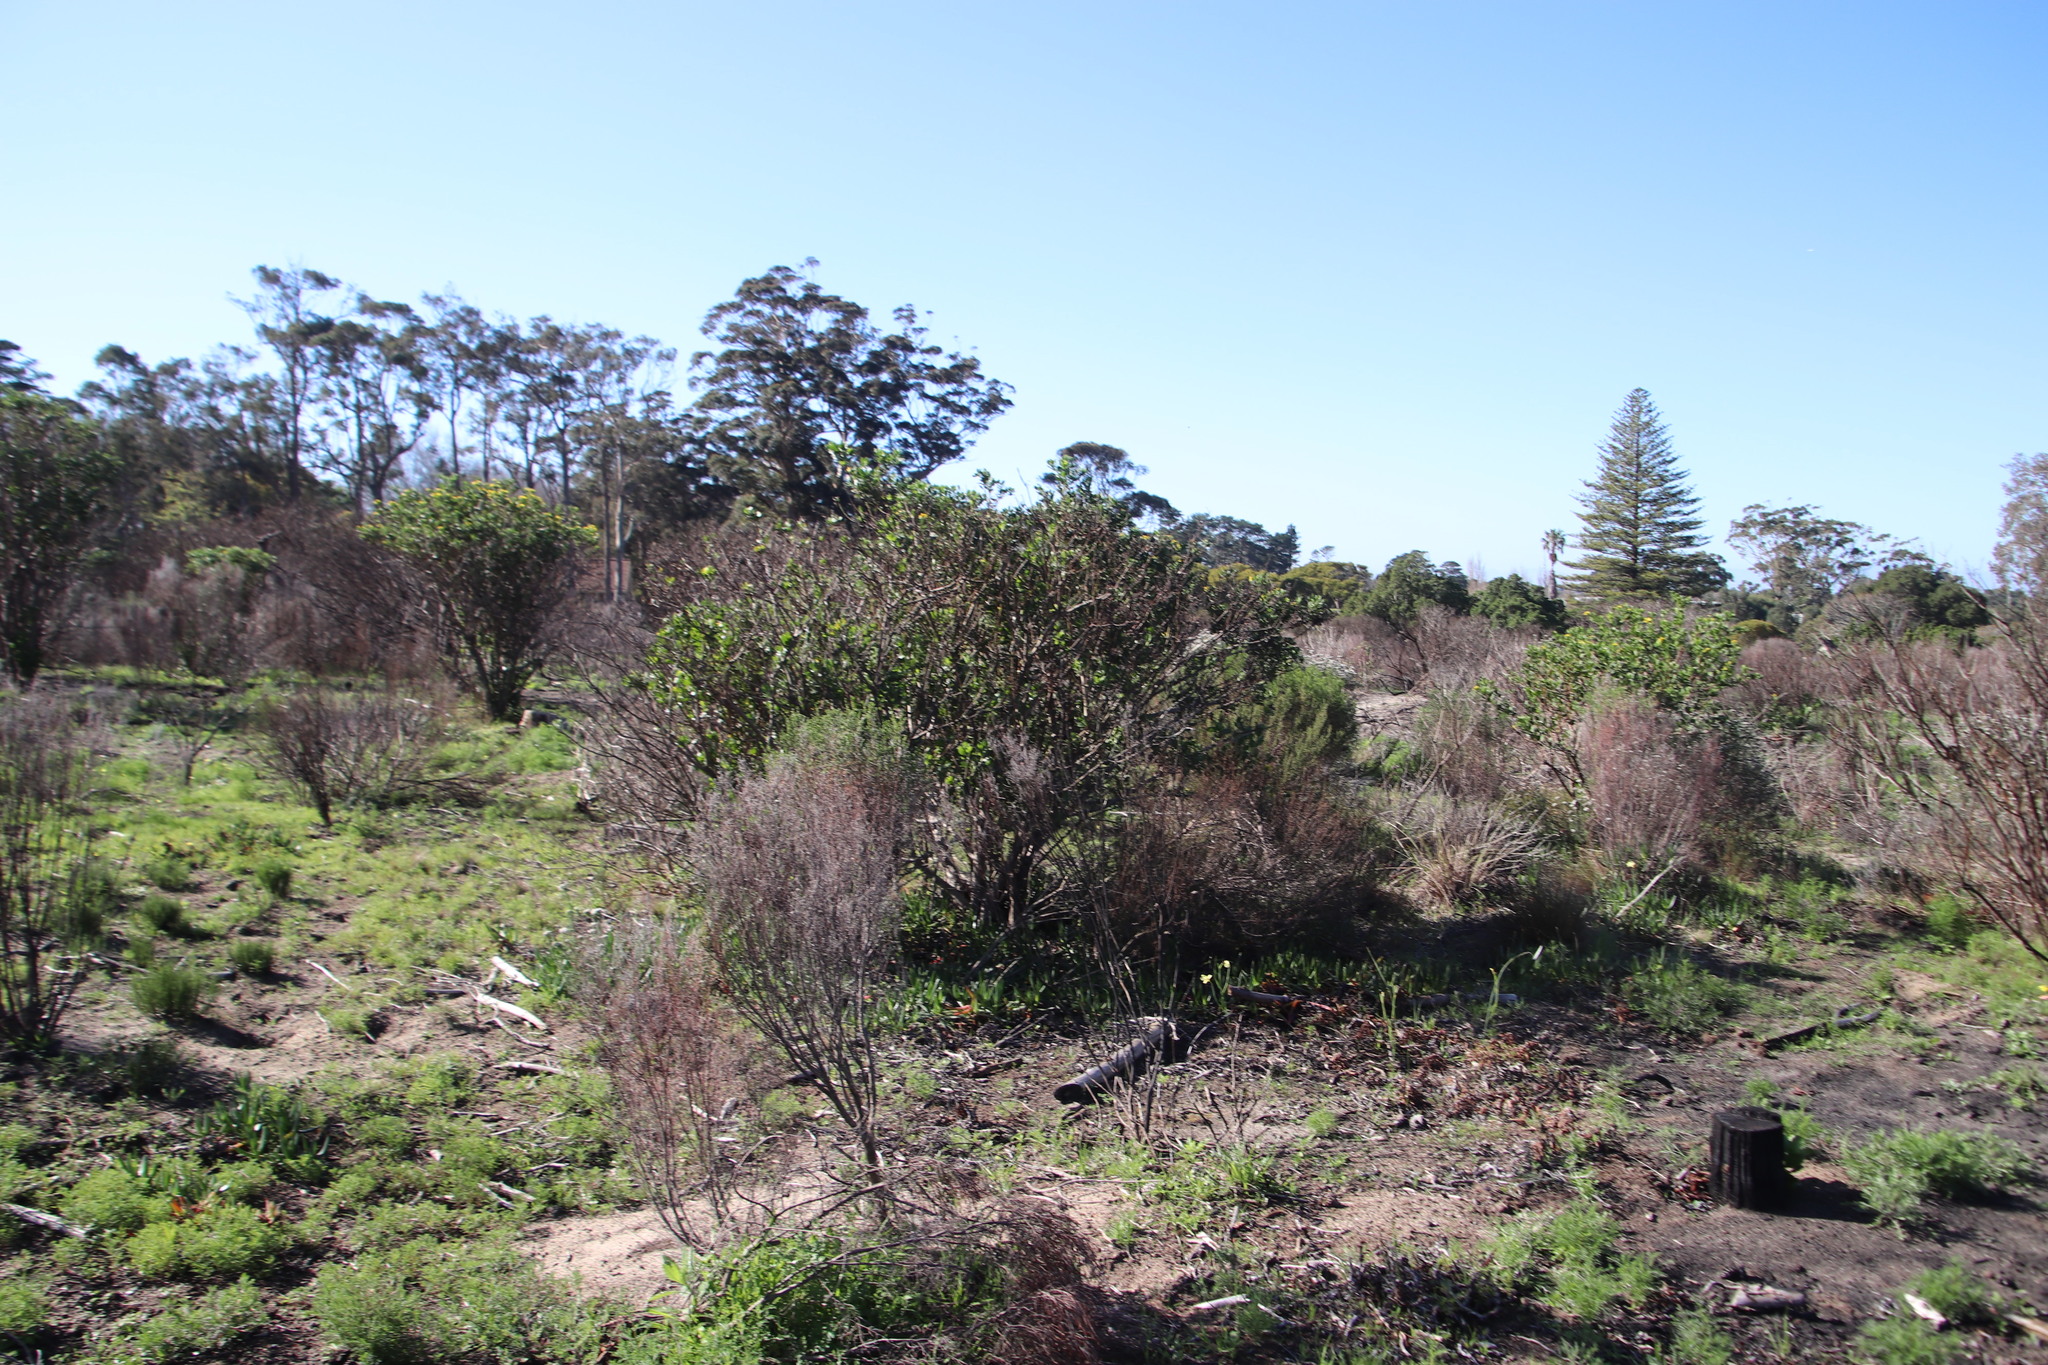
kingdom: Plantae
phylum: Tracheophyta
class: Magnoliopsida
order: Asterales
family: Asteraceae
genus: Osteospermum
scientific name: Osteospermum moniliferum
